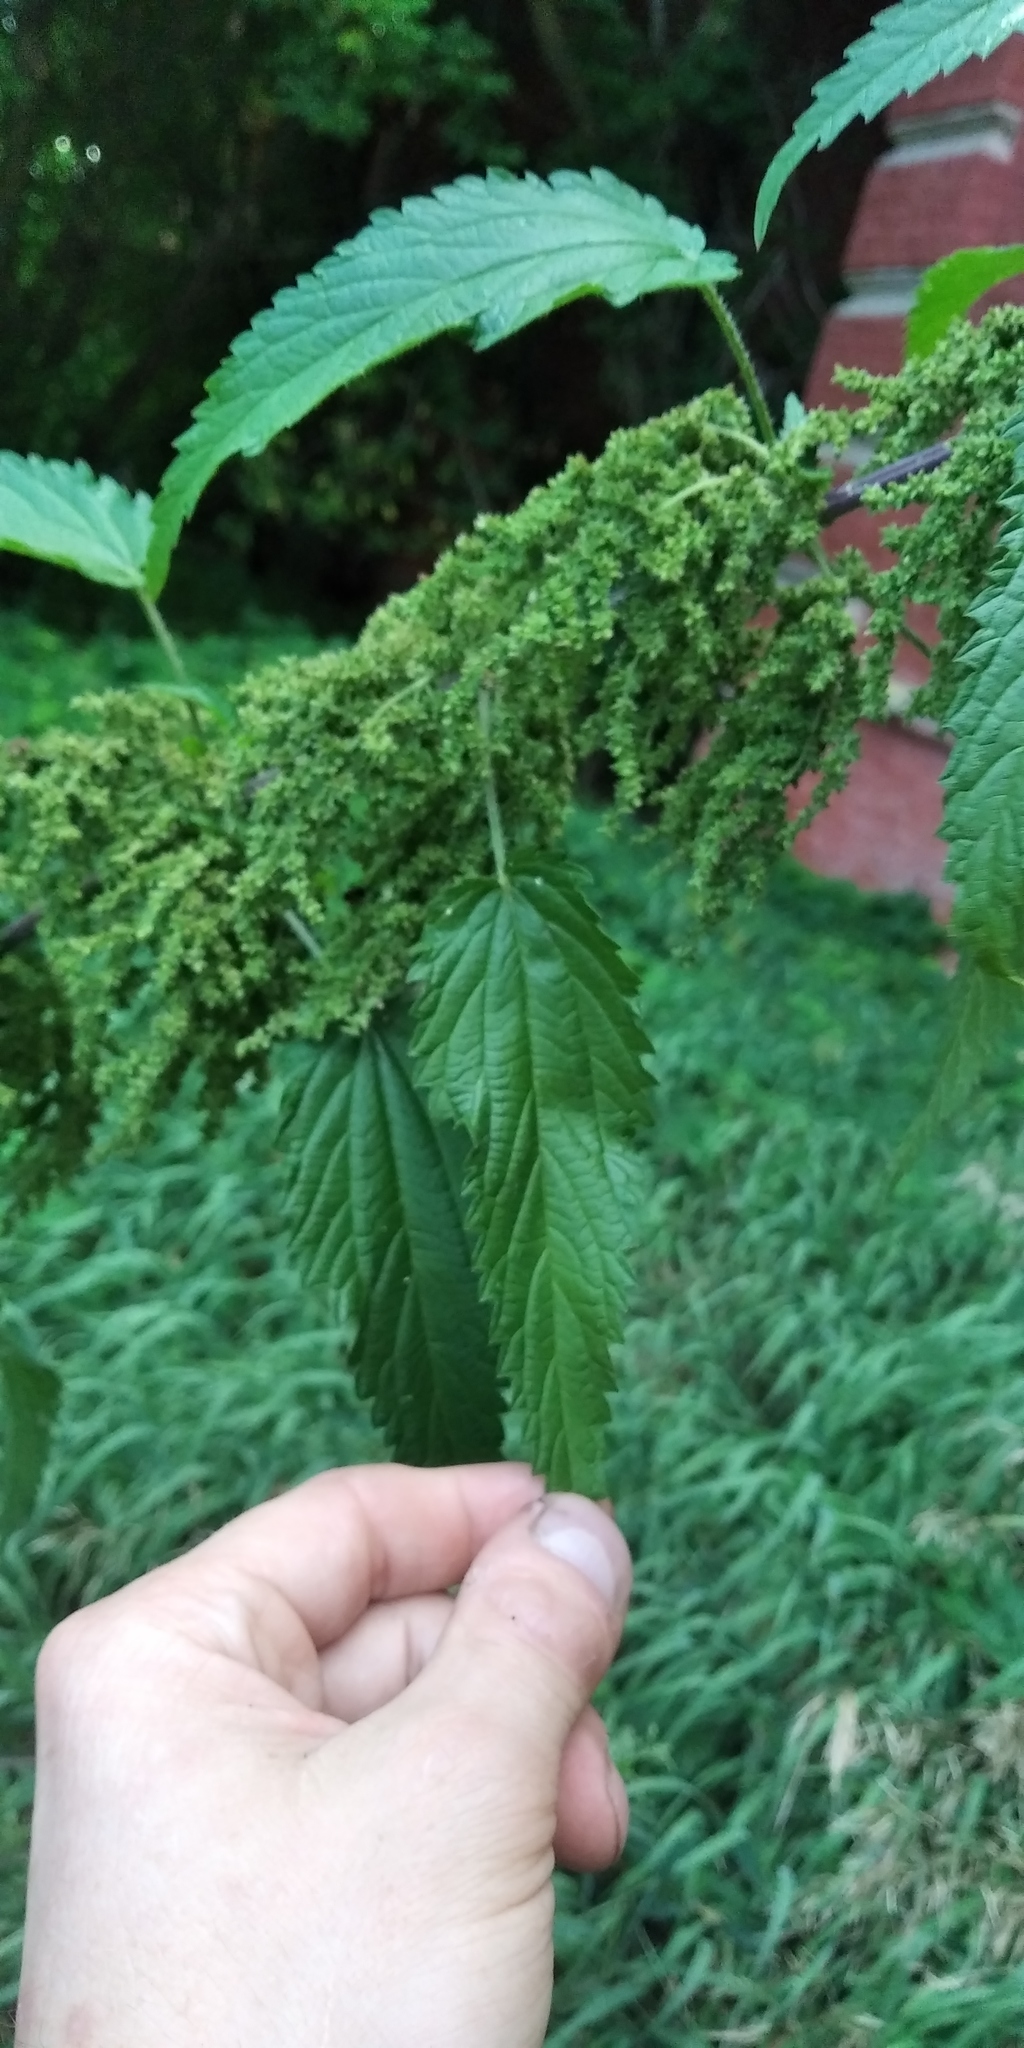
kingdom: Plantae
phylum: Tracheophyta
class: Magnoliopsida
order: Rosales
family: Urticaceae
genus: Urtica
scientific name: Urtica dioica
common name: Common nettle
